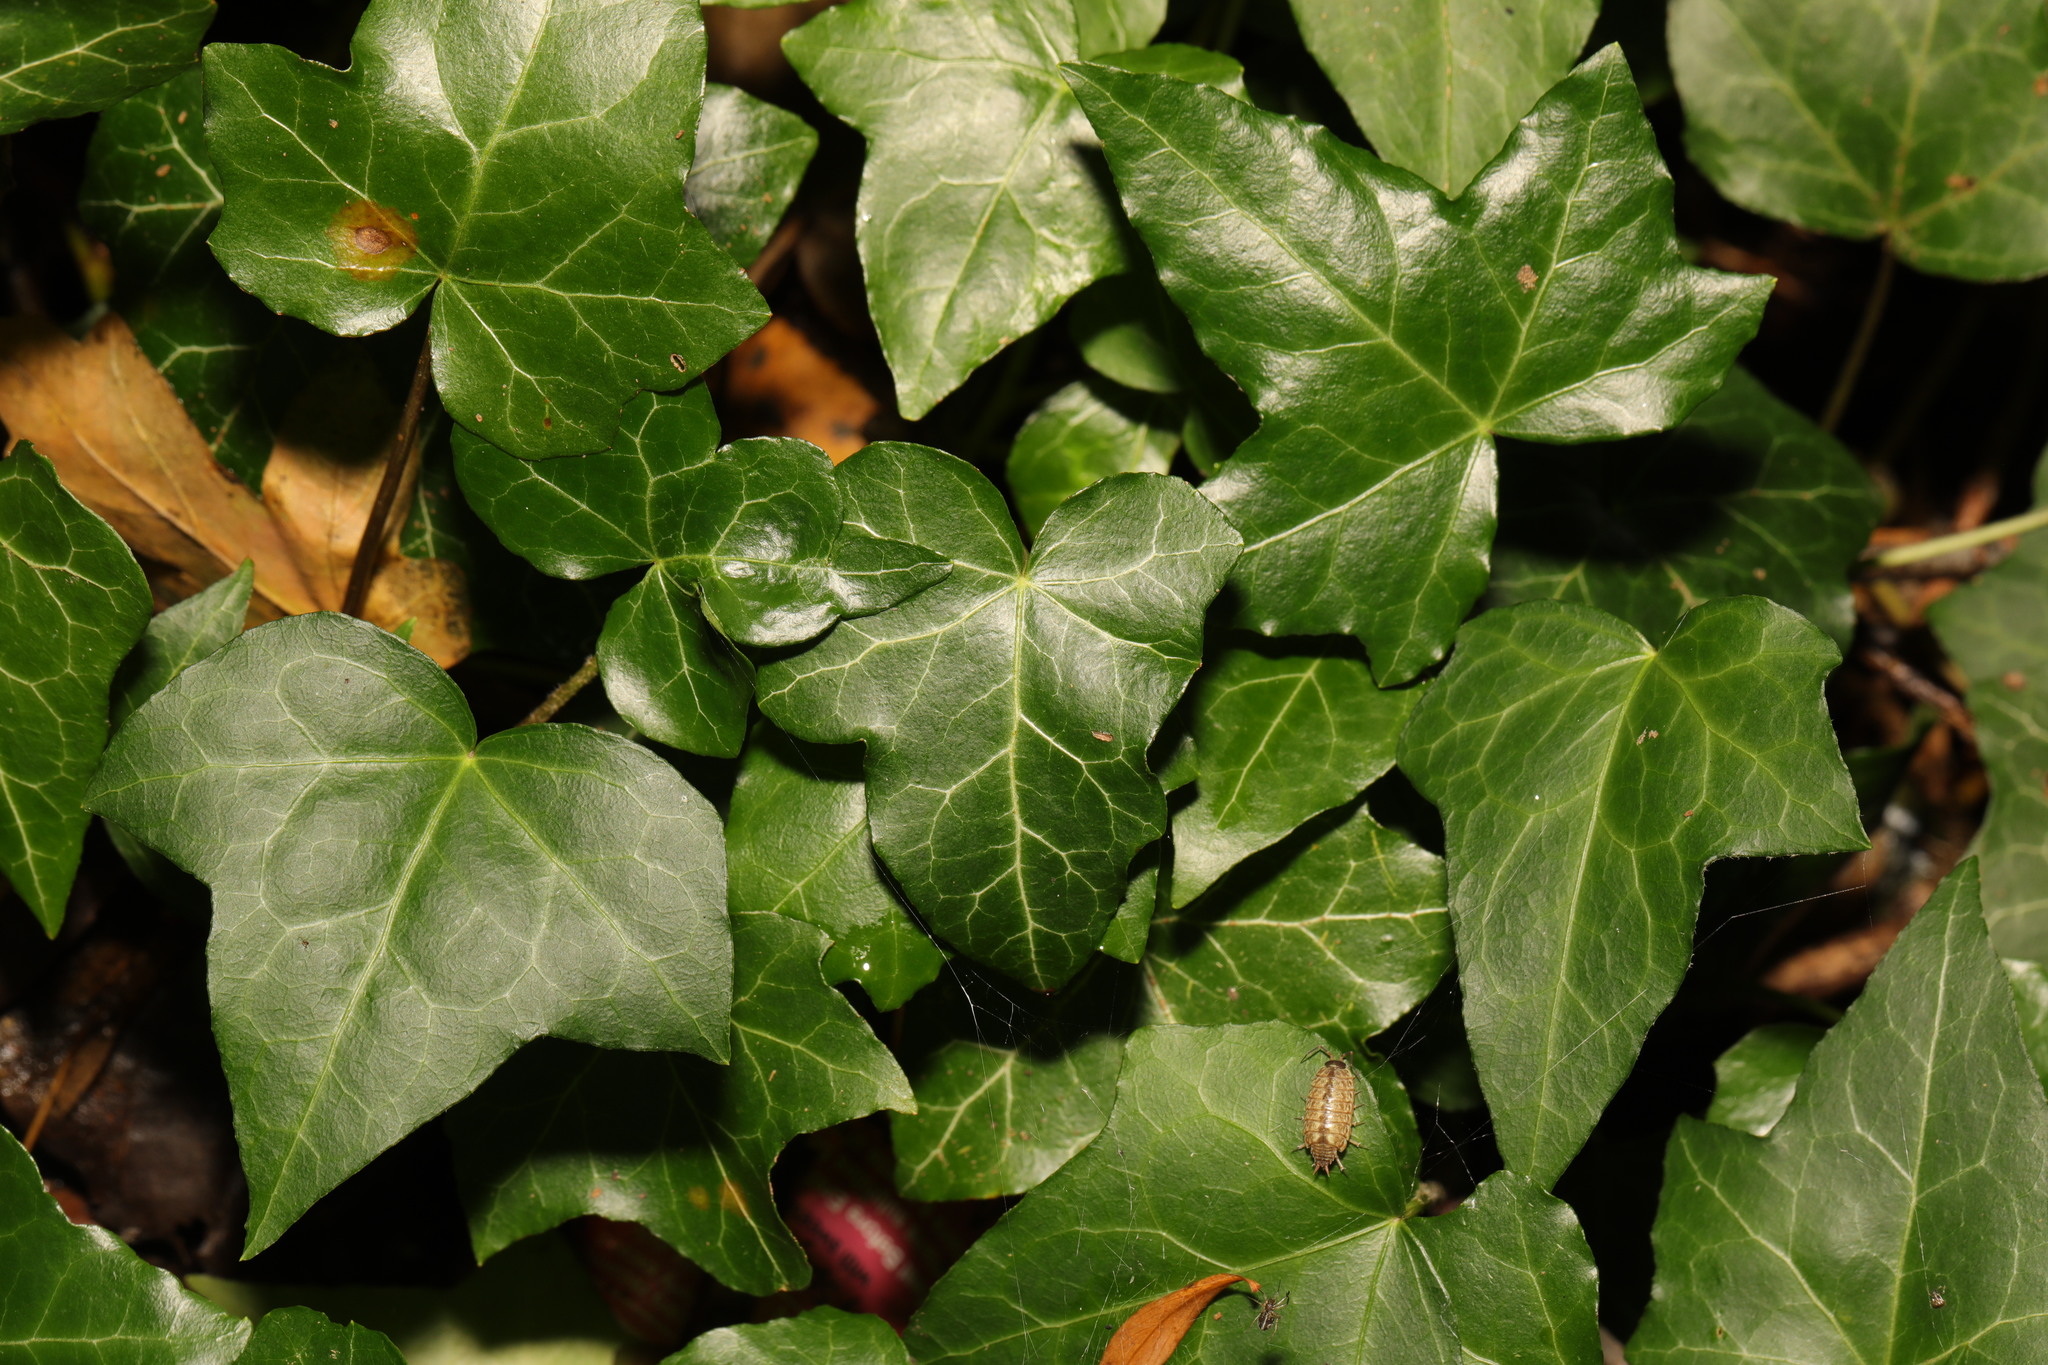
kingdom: Plantae
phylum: Tracheophyta
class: Magnoliopsida
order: Apiales
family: Araliaceae
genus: Hedera
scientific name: Hedera helix
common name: Ivy
